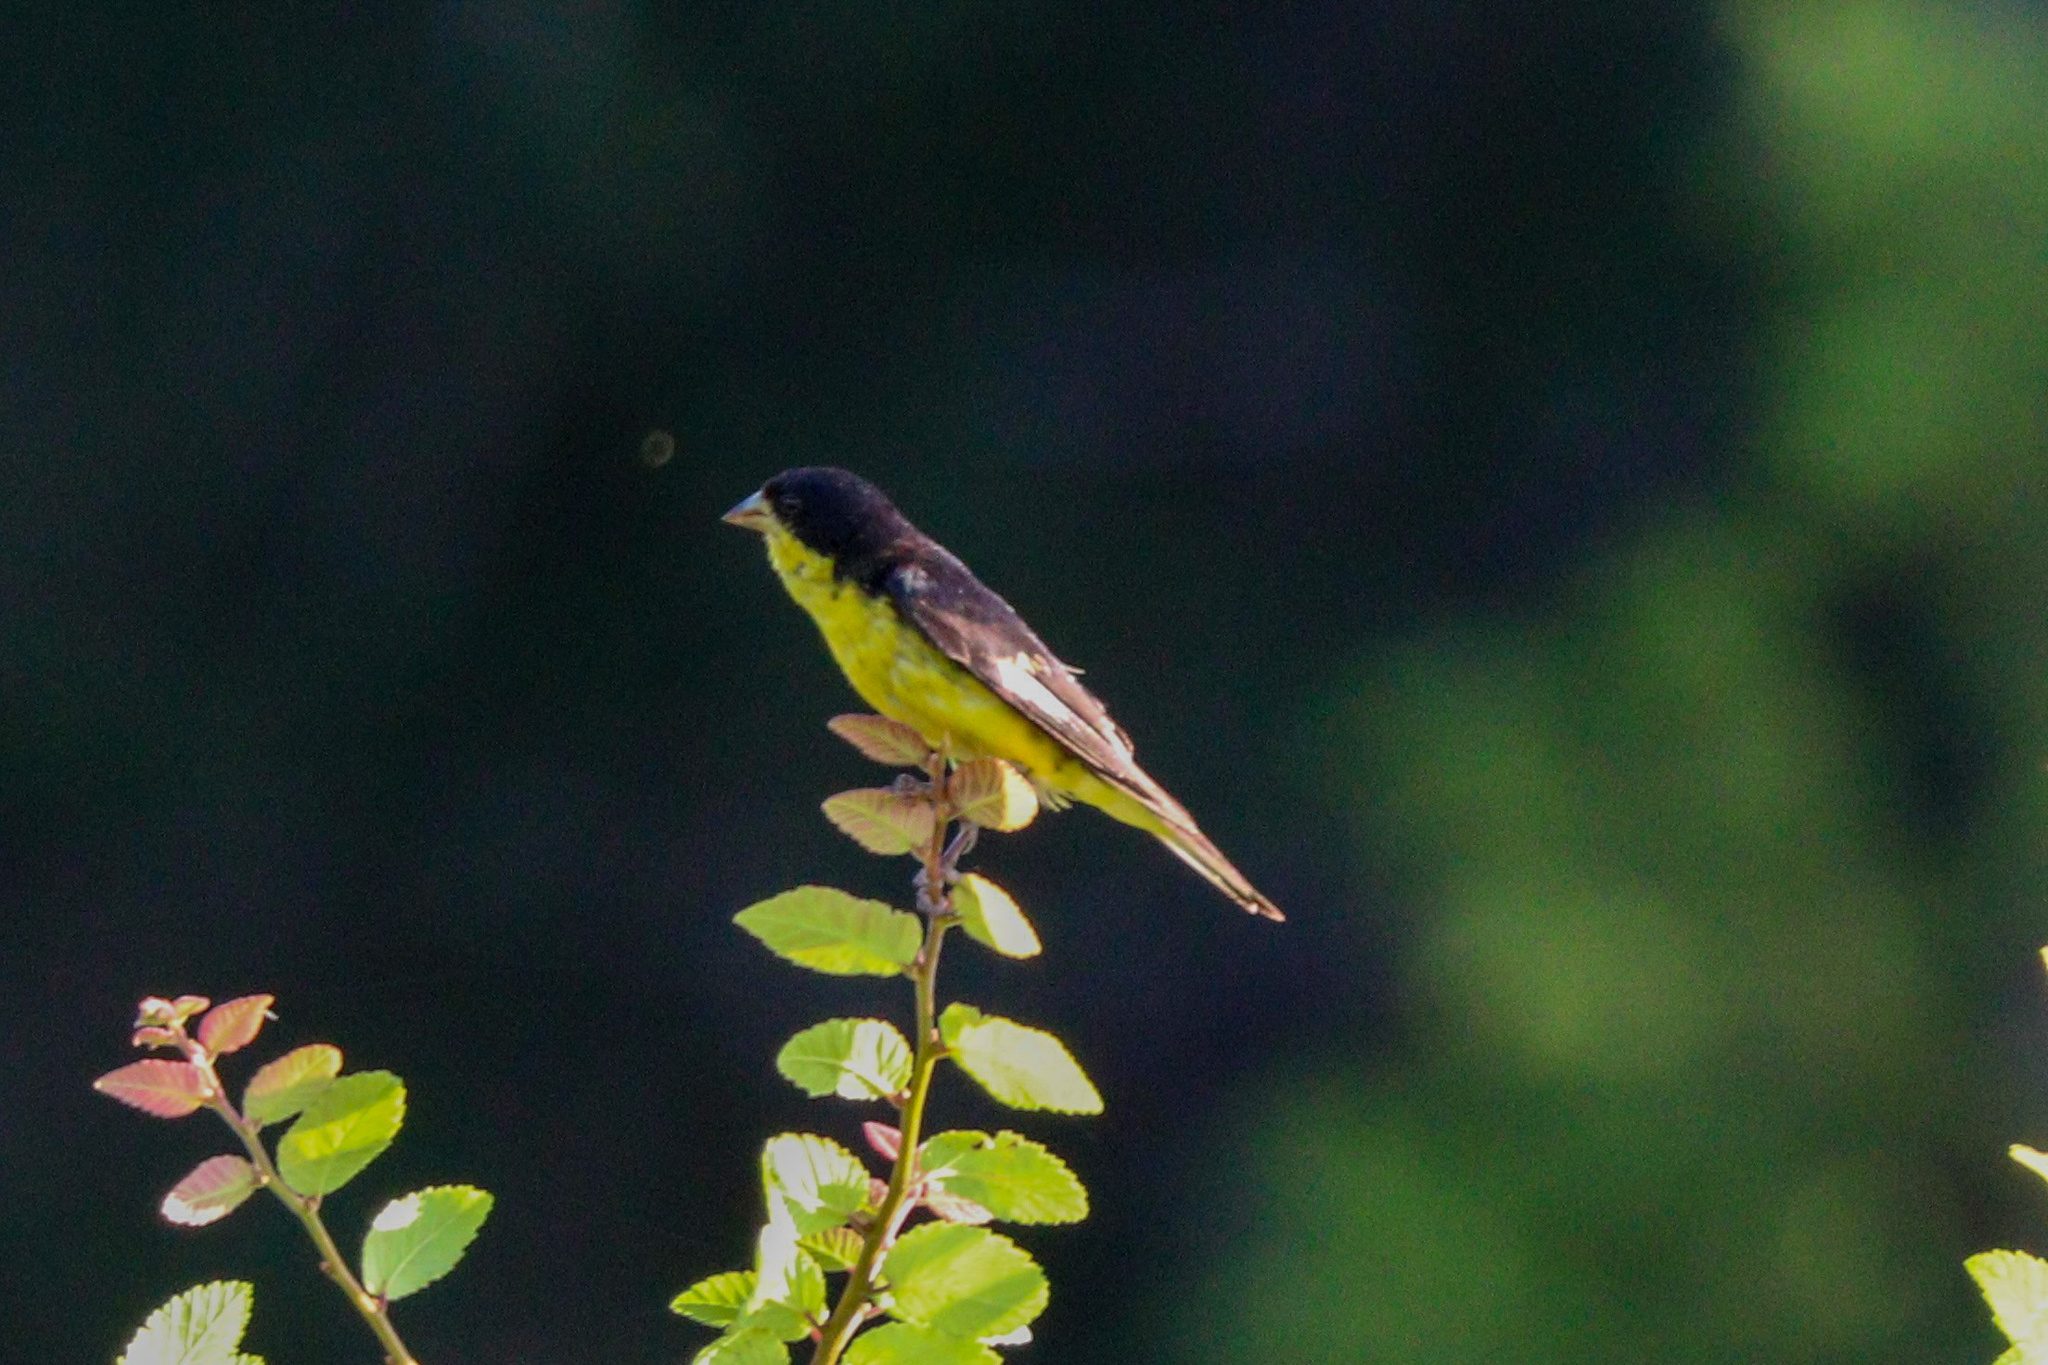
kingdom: Animalia
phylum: Chordata
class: Aves
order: Passeriformes
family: Fringillidae
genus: Spinus
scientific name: Spinus psaltria
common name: Lesser goldfinch
